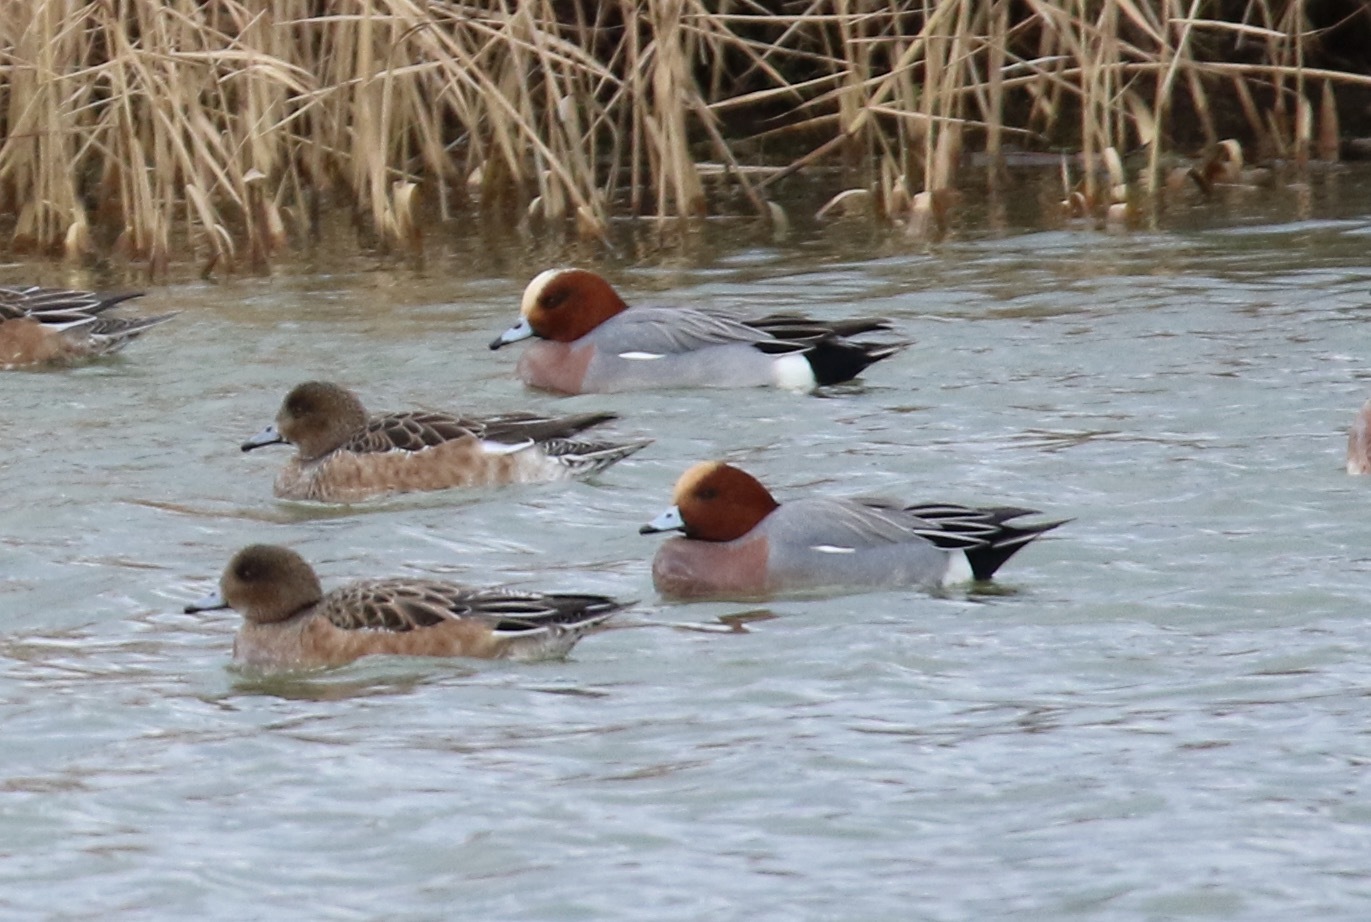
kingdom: Animalia
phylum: Chordata
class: Aves
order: Anseriformes
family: Anatidae
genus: Mareca
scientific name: Mareca penelope
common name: Eurasian wigeon
